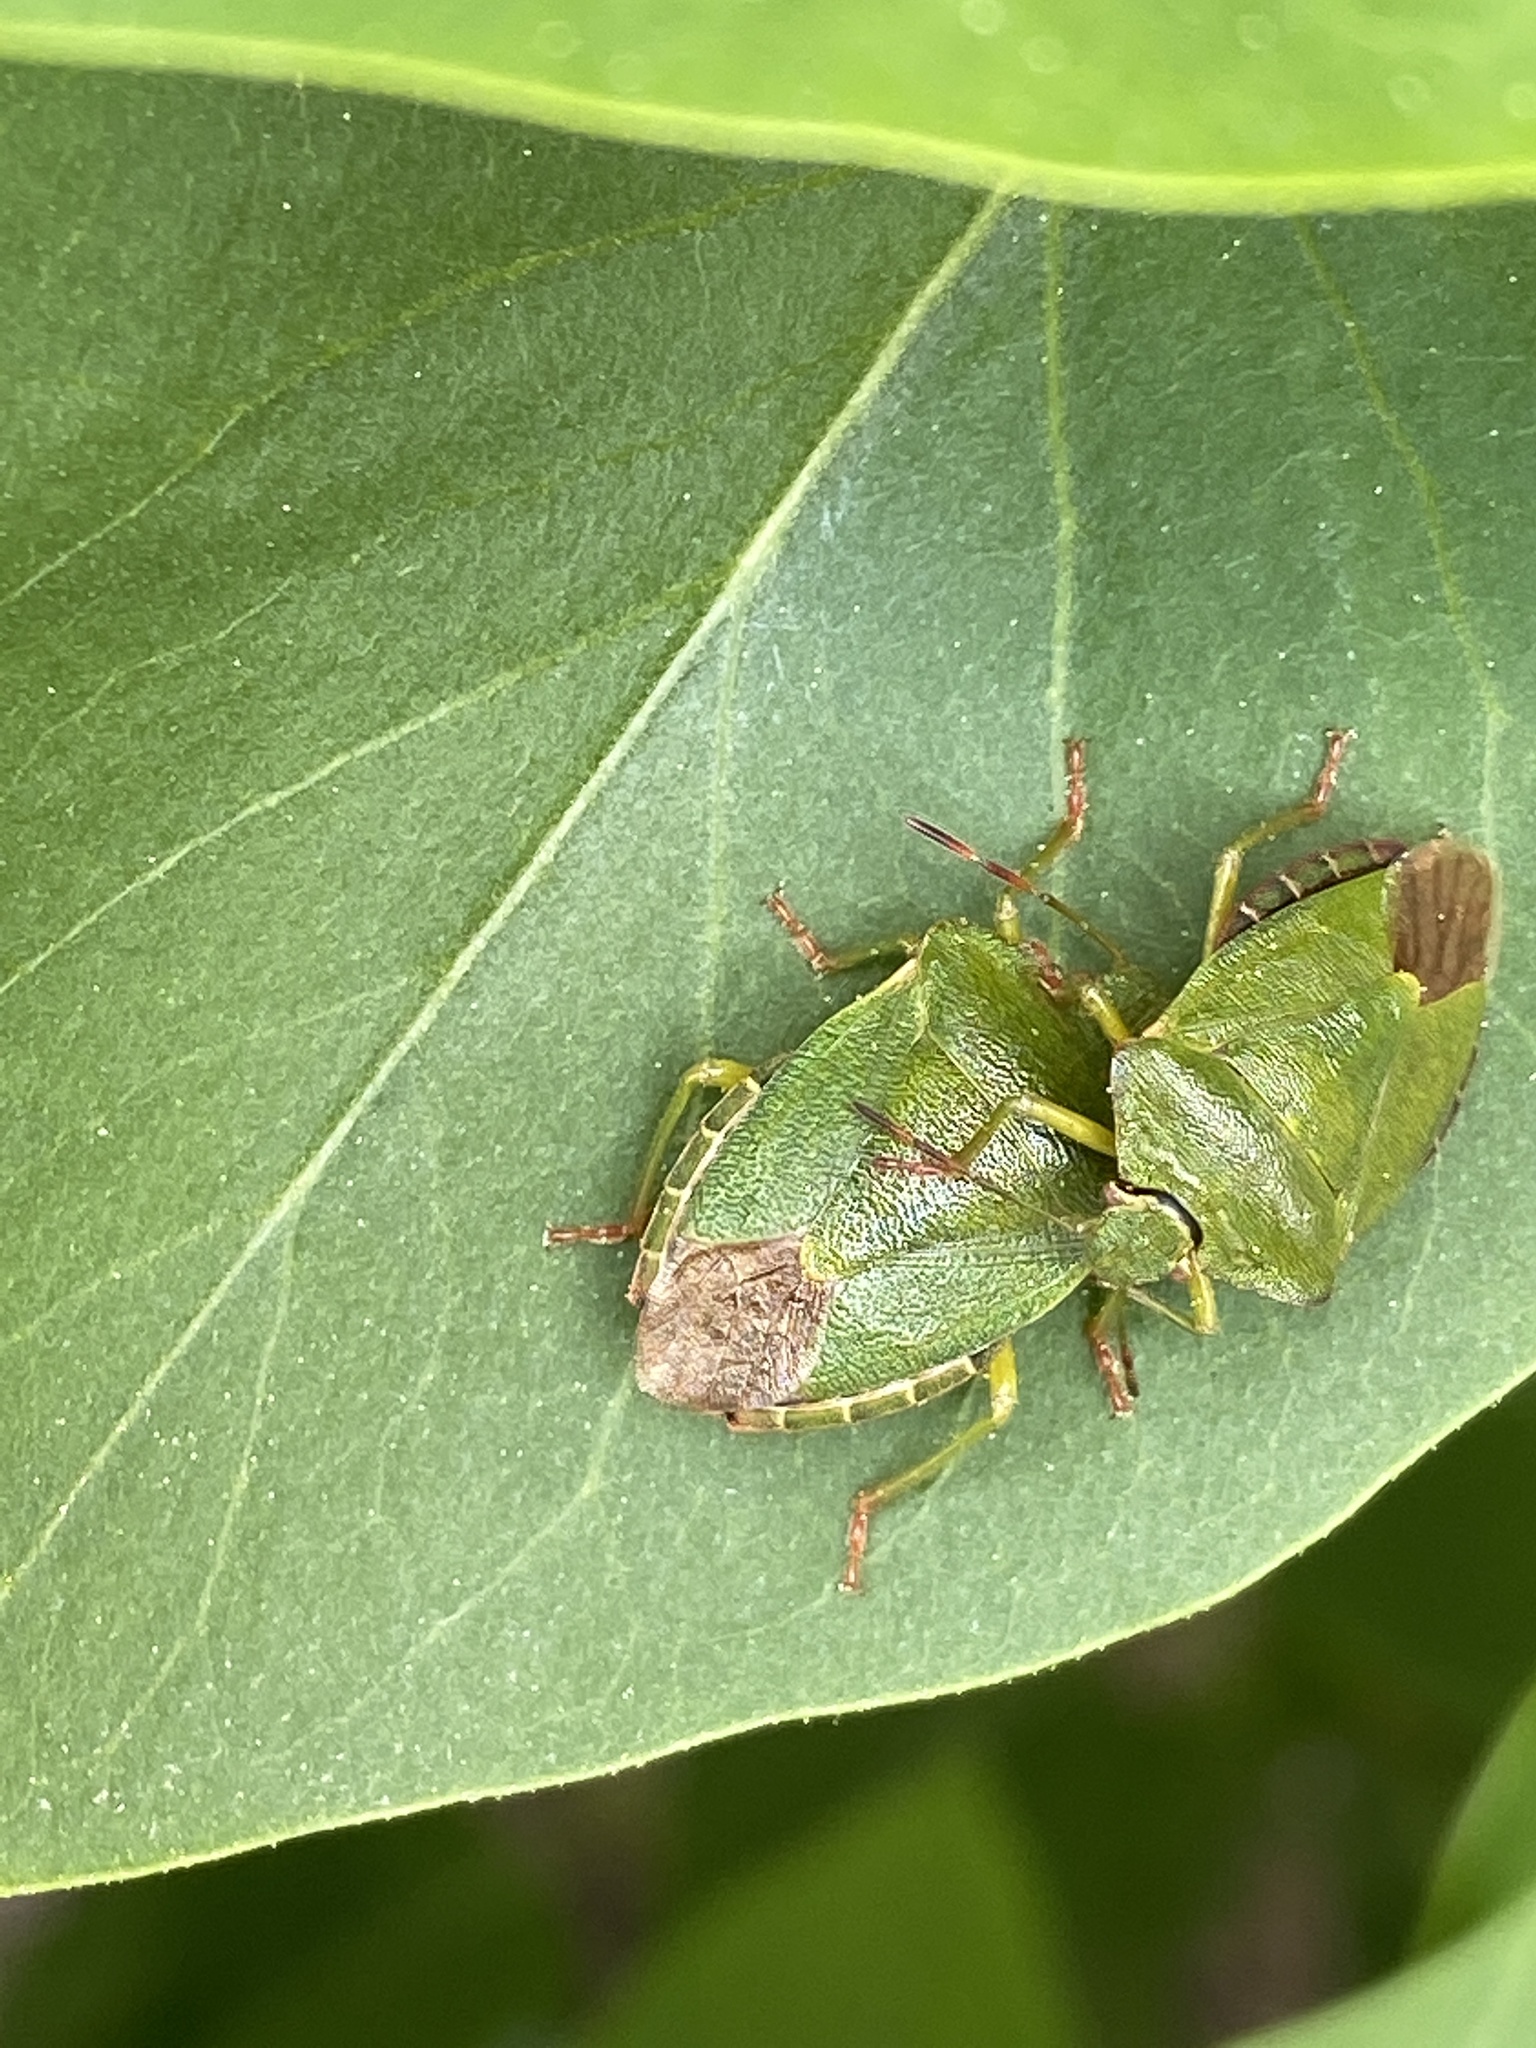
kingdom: Animalia
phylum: Arthropoda
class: Insecta
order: Hemiptera
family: Pentatomidae
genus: Palomena
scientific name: Palomena prasina
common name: Green shieldbug
